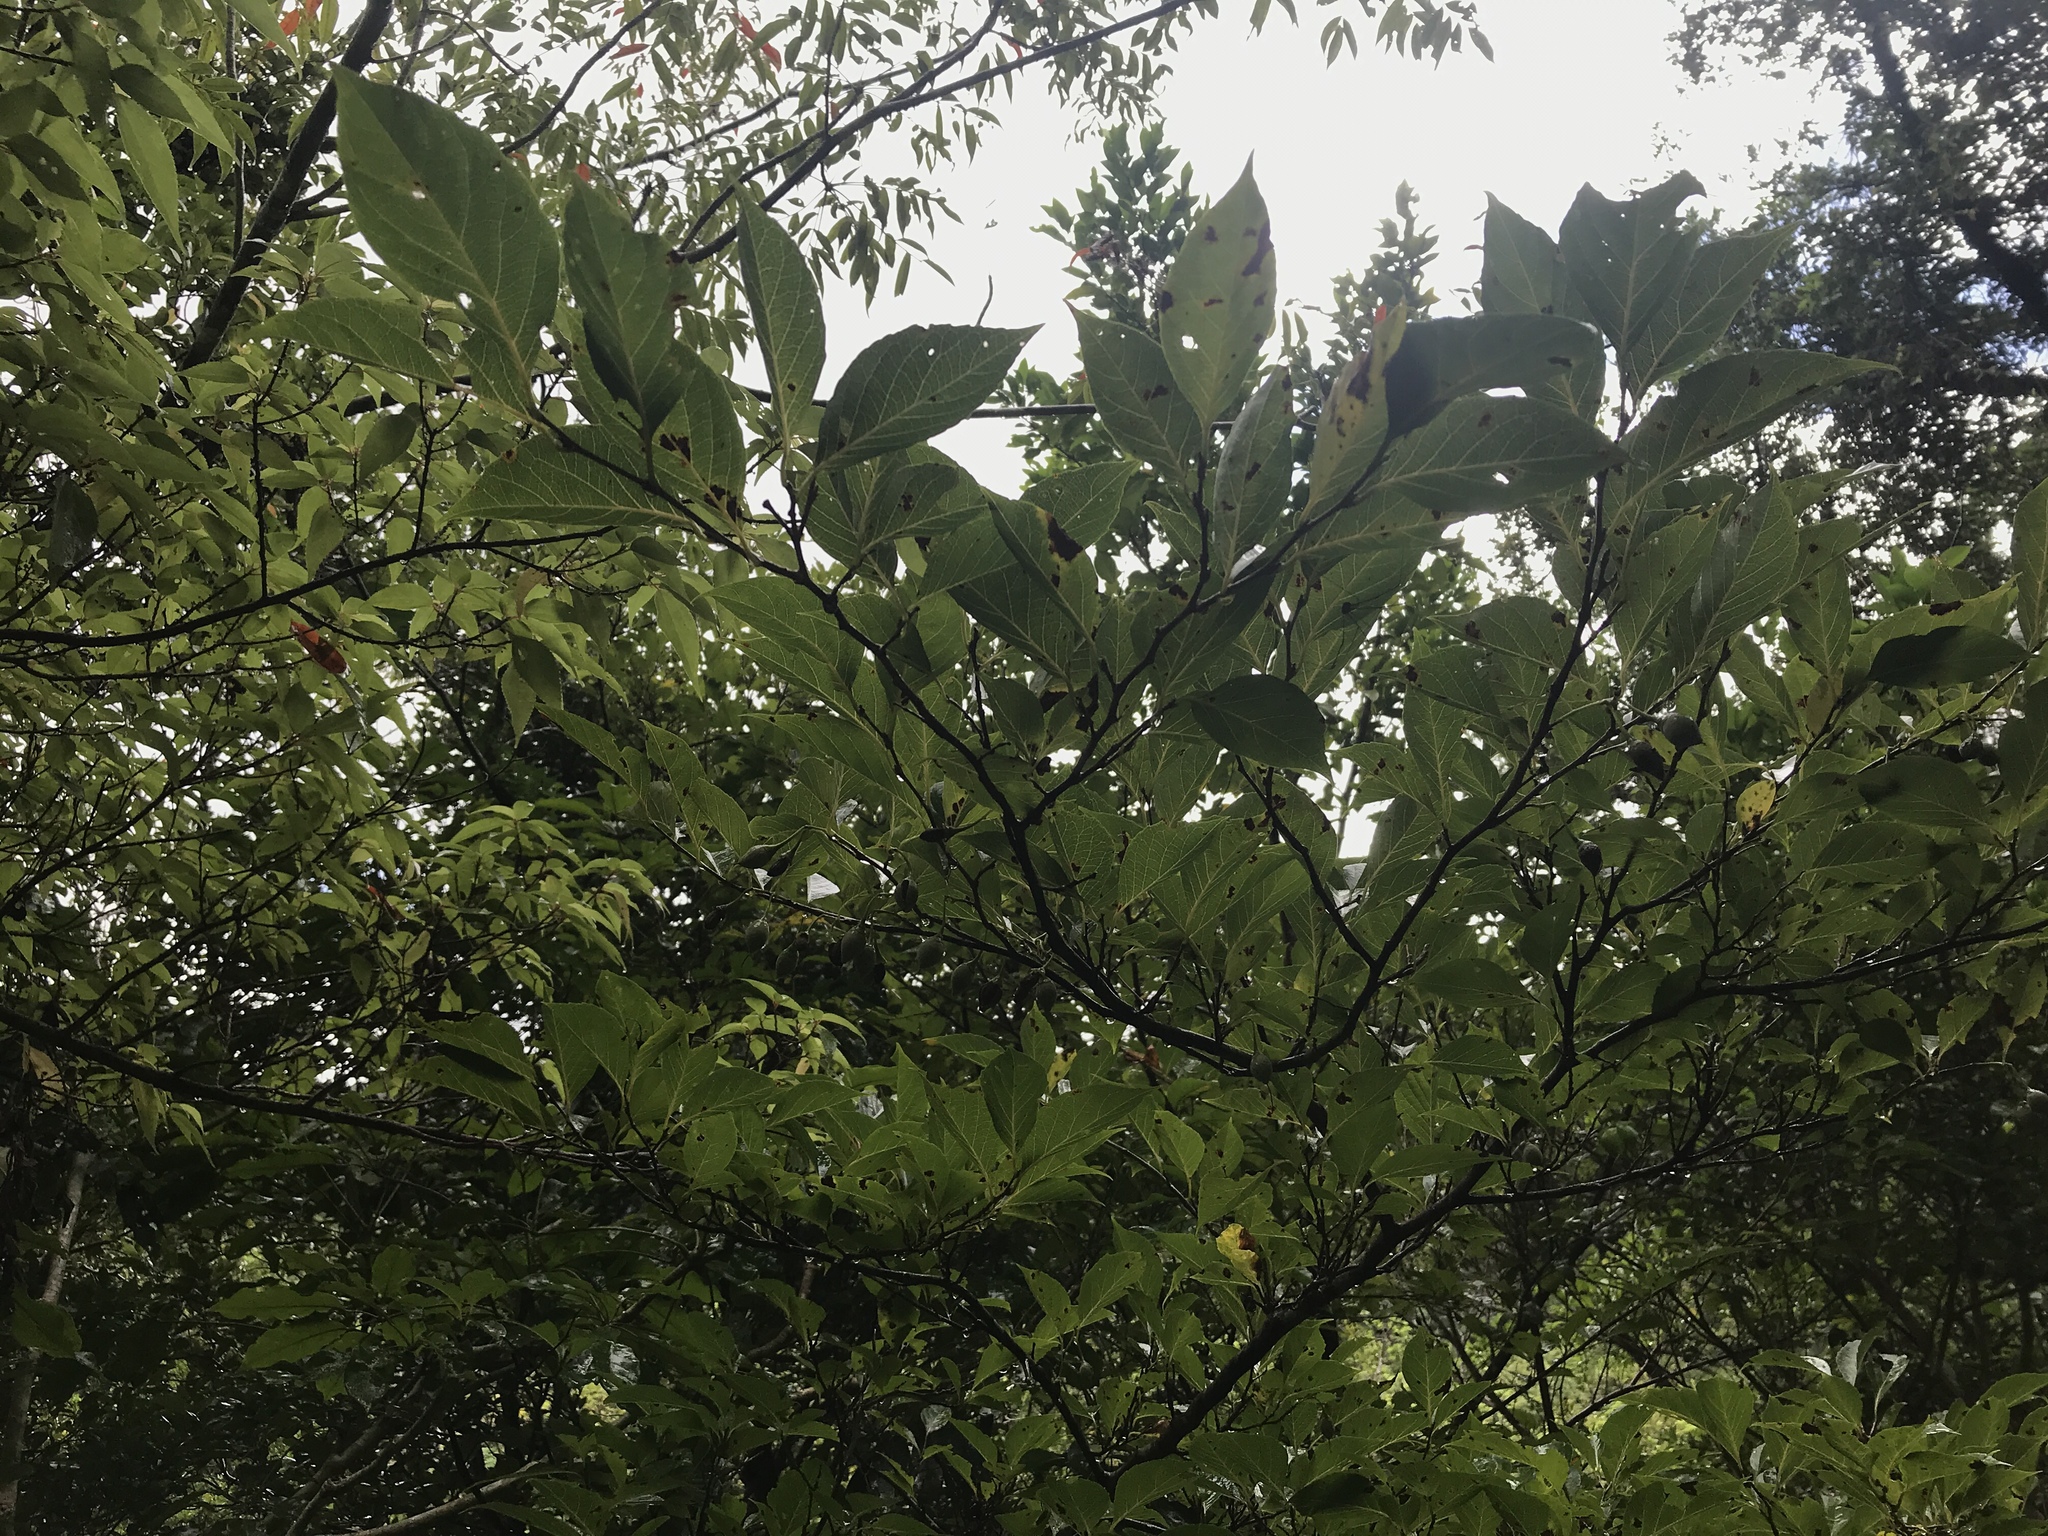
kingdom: Plantae
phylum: Tracheophyta
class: Magnoliopsida
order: Ericales
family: Styracaceae
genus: Styrax
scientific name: Styrax japonicus
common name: Japanese snowbell
